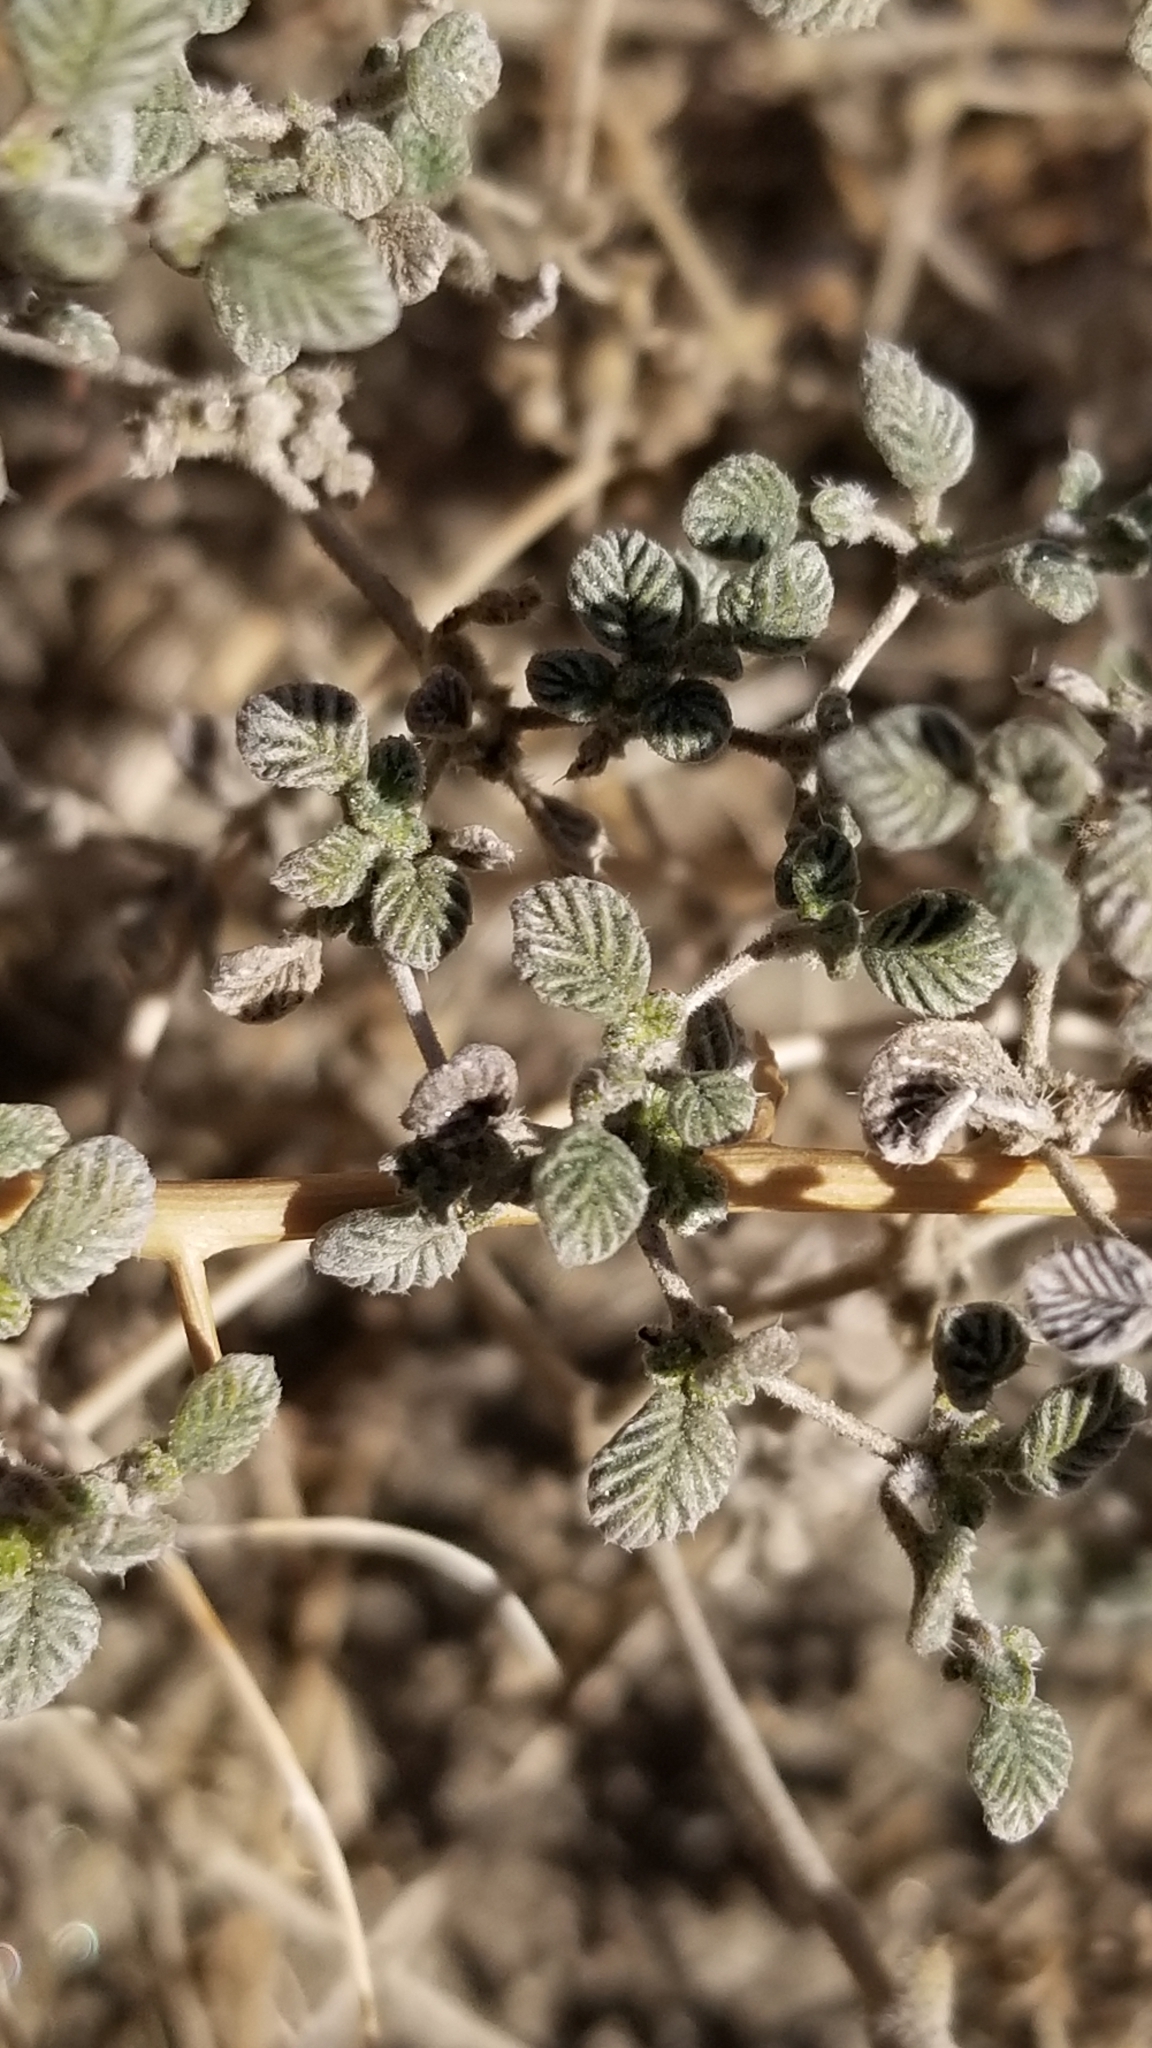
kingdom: Plantae
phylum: Tracheophyta
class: Magnoliopsida
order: Boraginales
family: Ehretiaceae
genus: Tiquilia
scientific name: Tiquilia plicata
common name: Fan-leaf tiquilia
